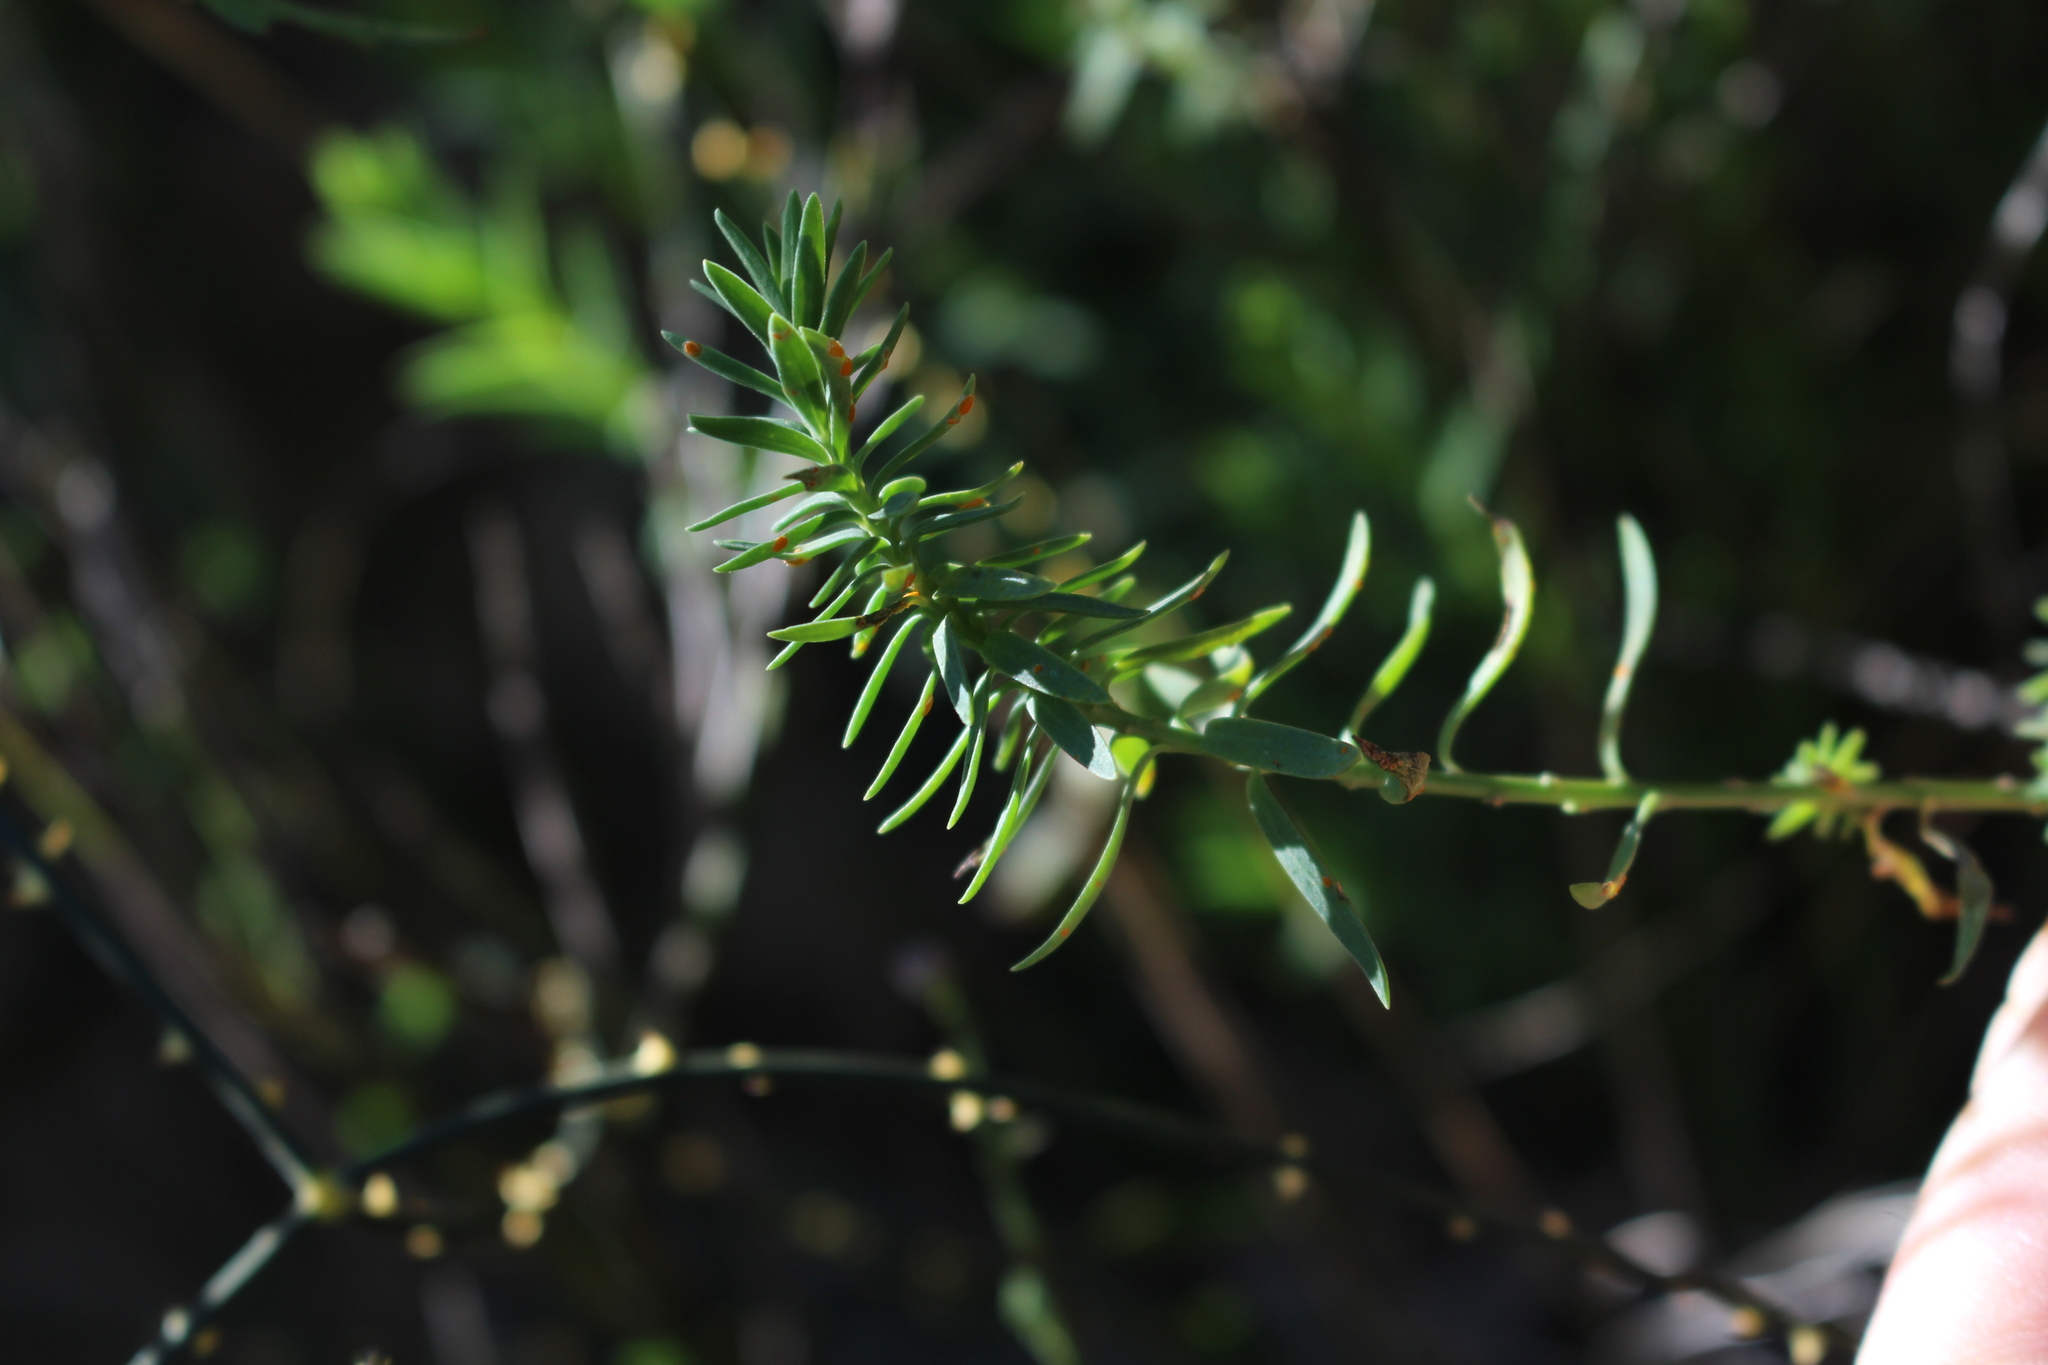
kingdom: Plantae
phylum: Tracheophyta
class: Magnoliopsida
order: Malpighiales
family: Linaceae
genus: Linum
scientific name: Linum monogynum
